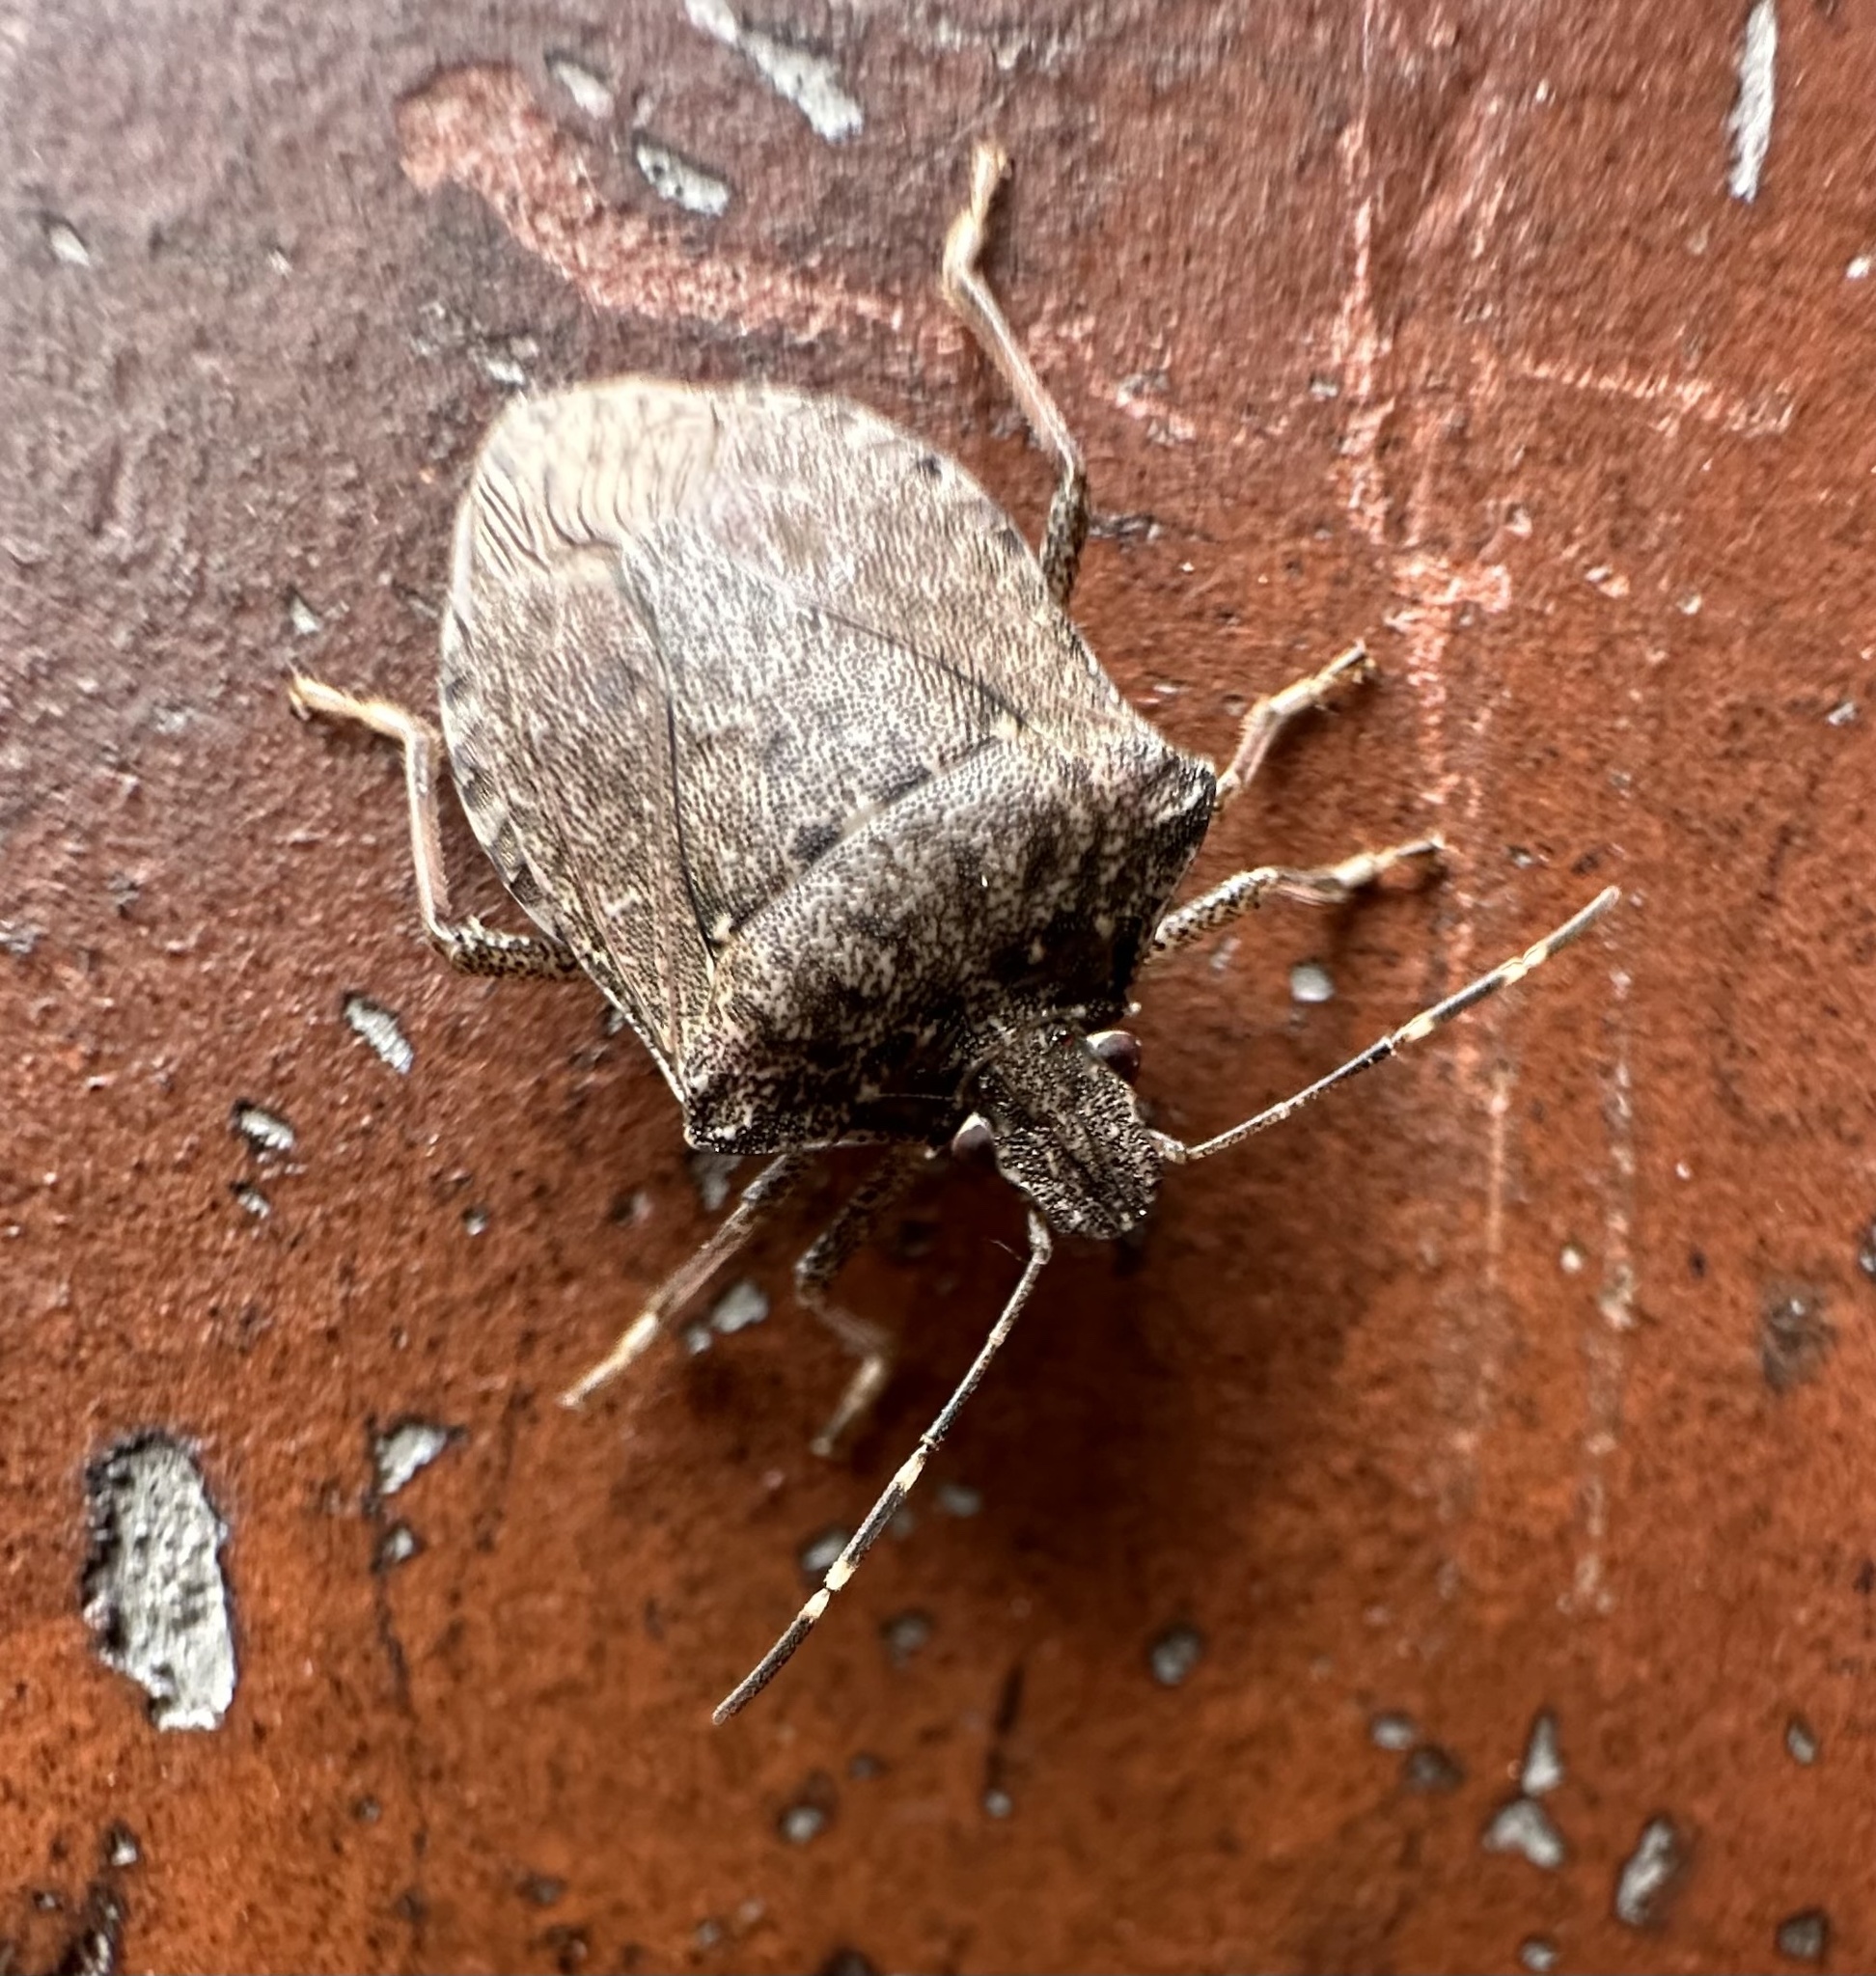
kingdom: Animalia
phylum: Arthropoda
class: Insecta
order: Hemiptera
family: Pentatomidae
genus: Halyomorpha
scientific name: Halyomorpha halys
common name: Brown marmorated stink bug
